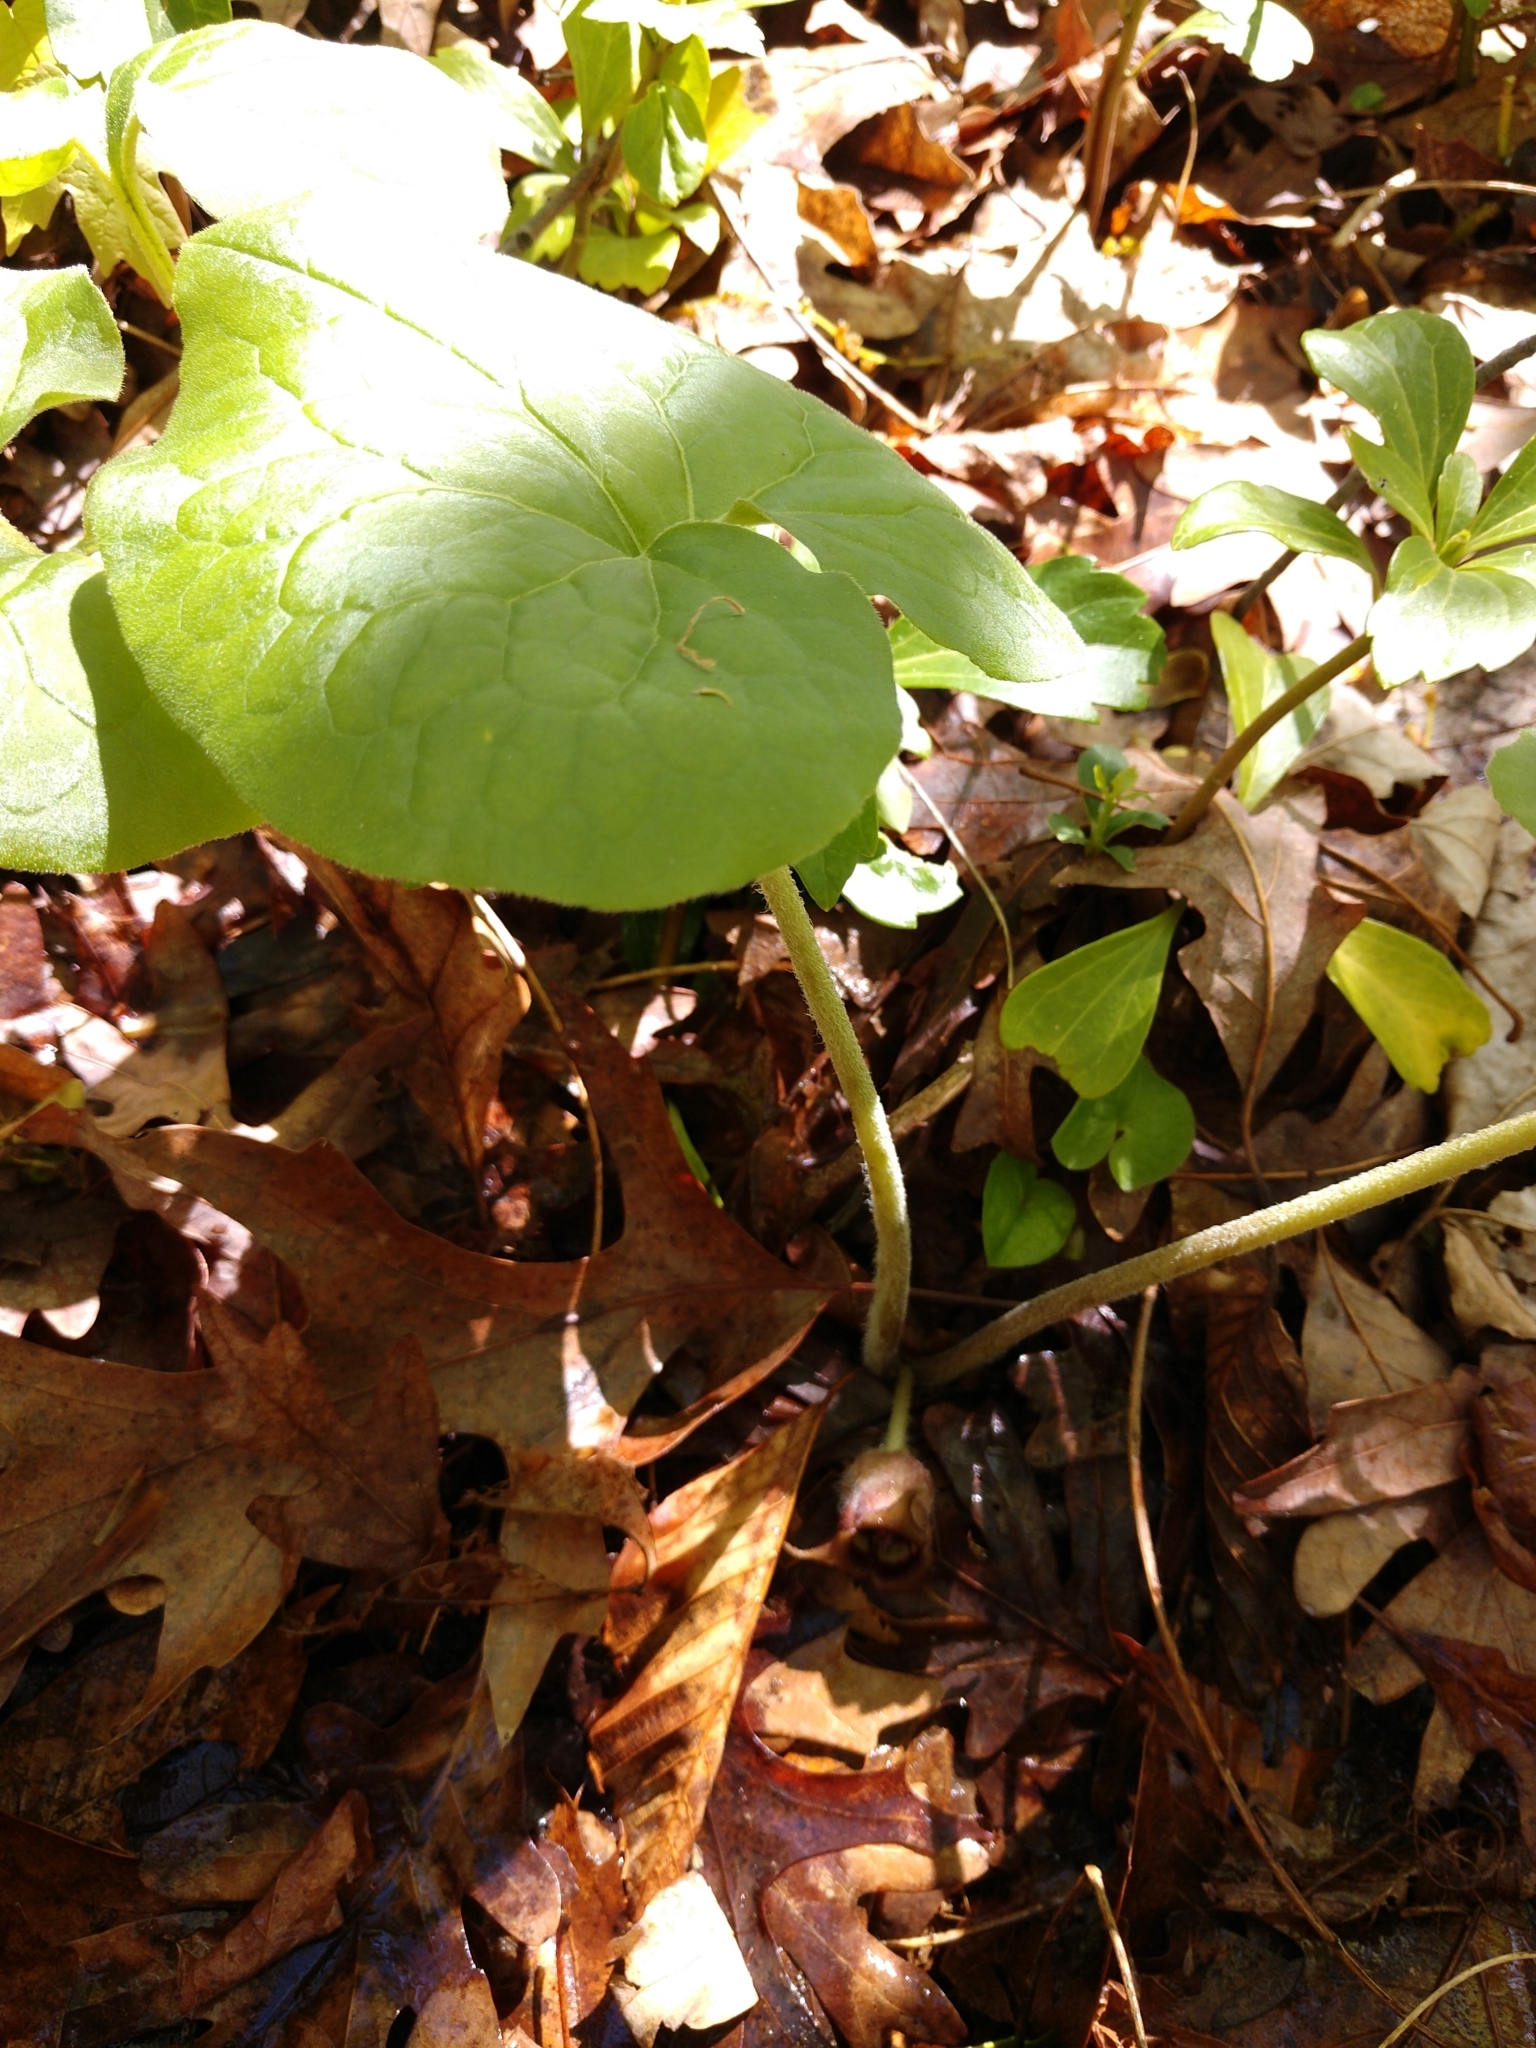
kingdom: Plantae
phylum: Tracheophyta
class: Magnoliopsida
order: Piperales
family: Aristolochiaceae
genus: Asarum
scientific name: Asarum canadense
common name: Wild ginger
